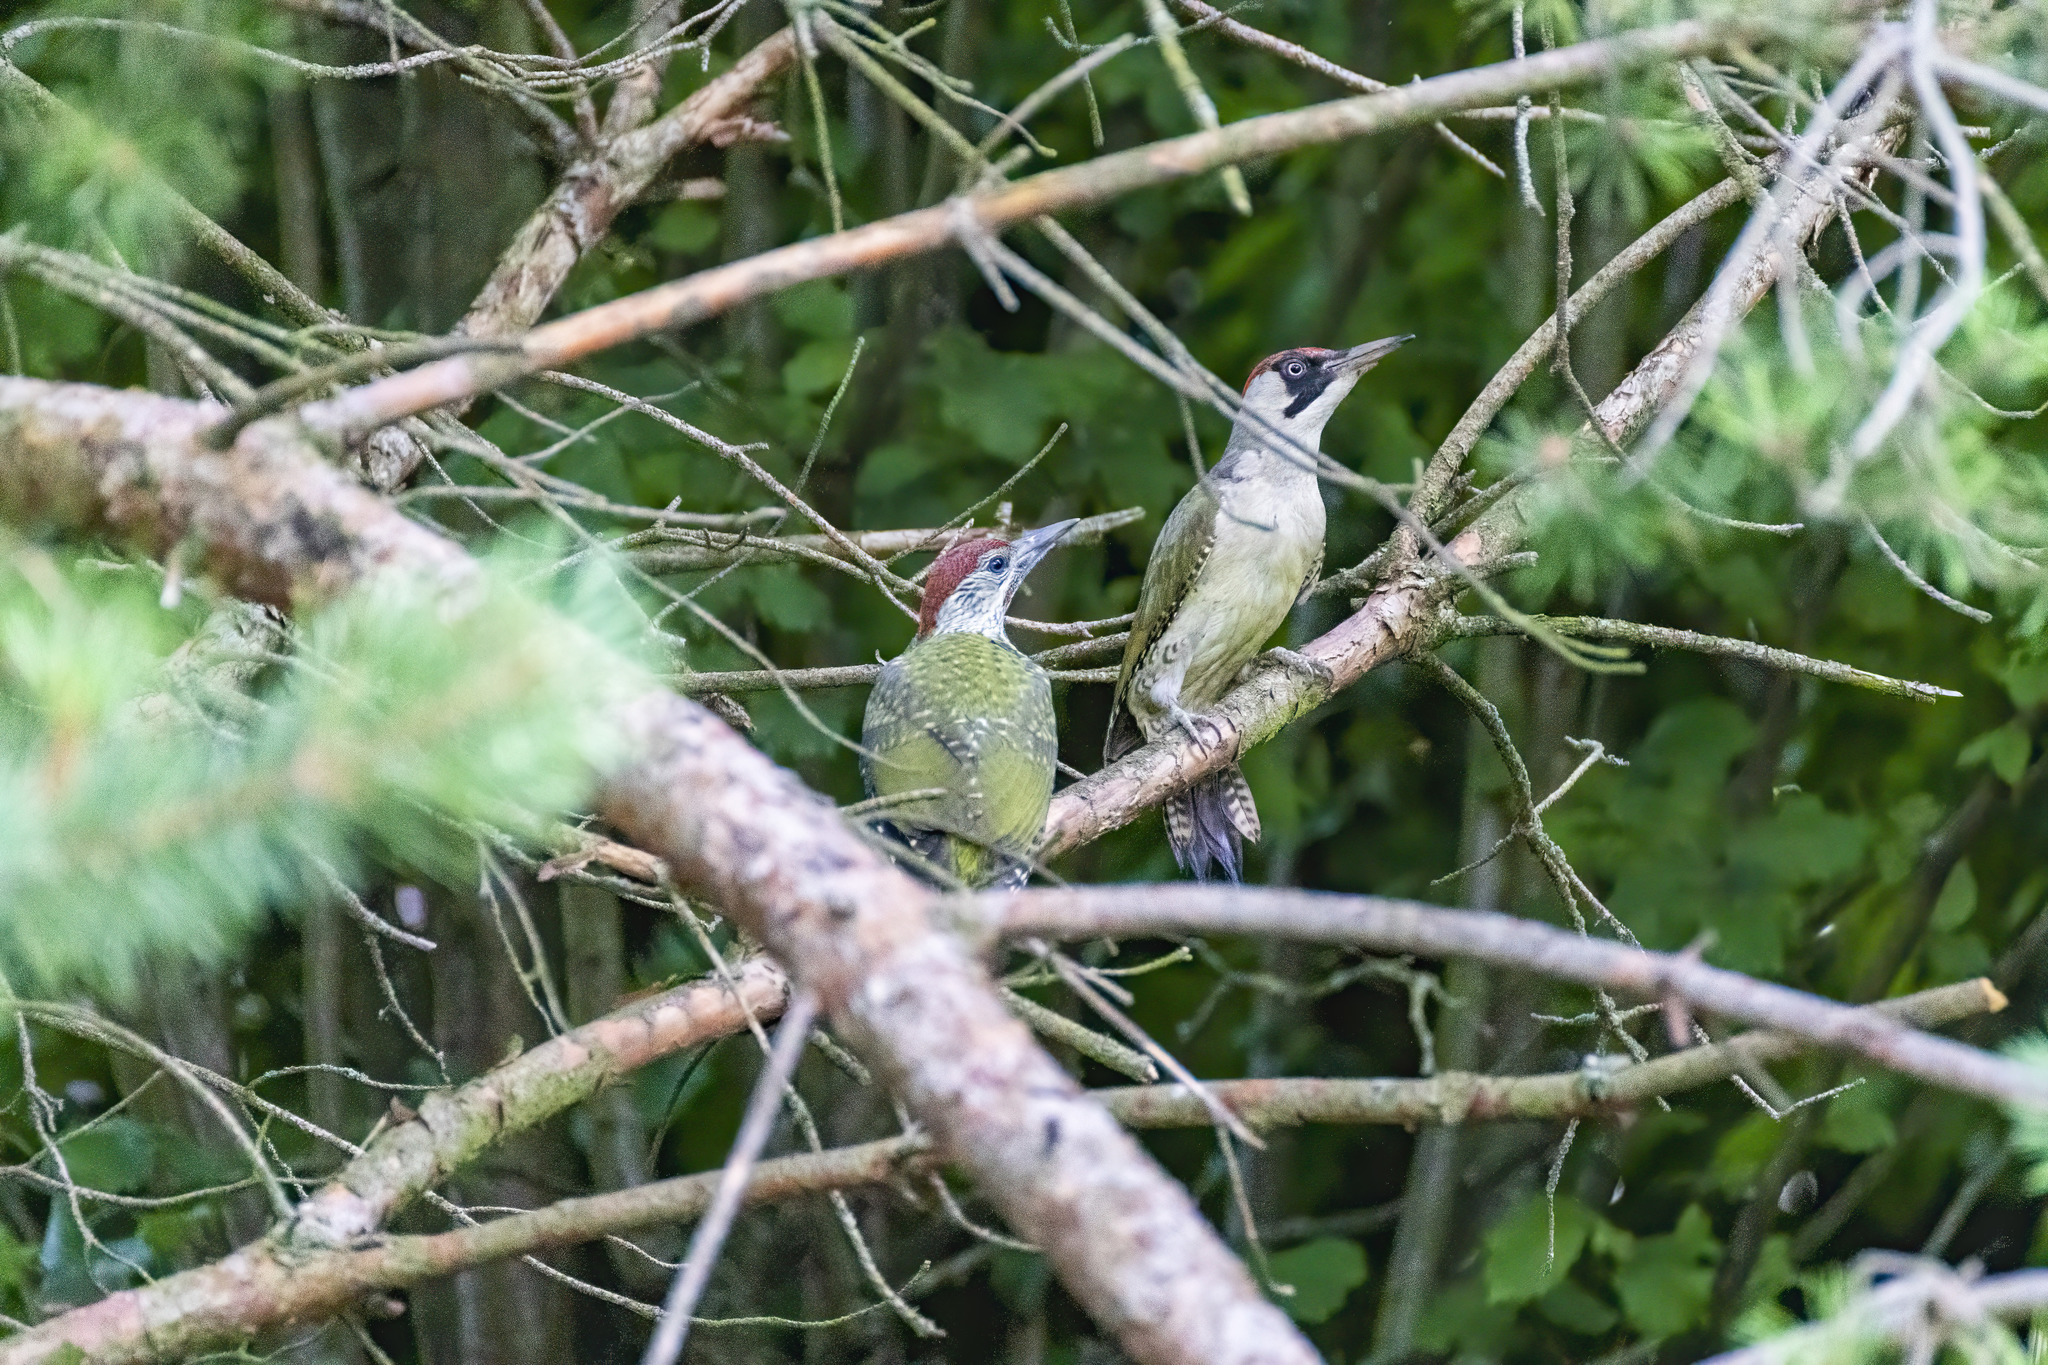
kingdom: Animalia
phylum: Chordata
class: Aves
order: Piciformes
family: Picidae
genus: Picus
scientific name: Picus viridis
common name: European green woodpecker
